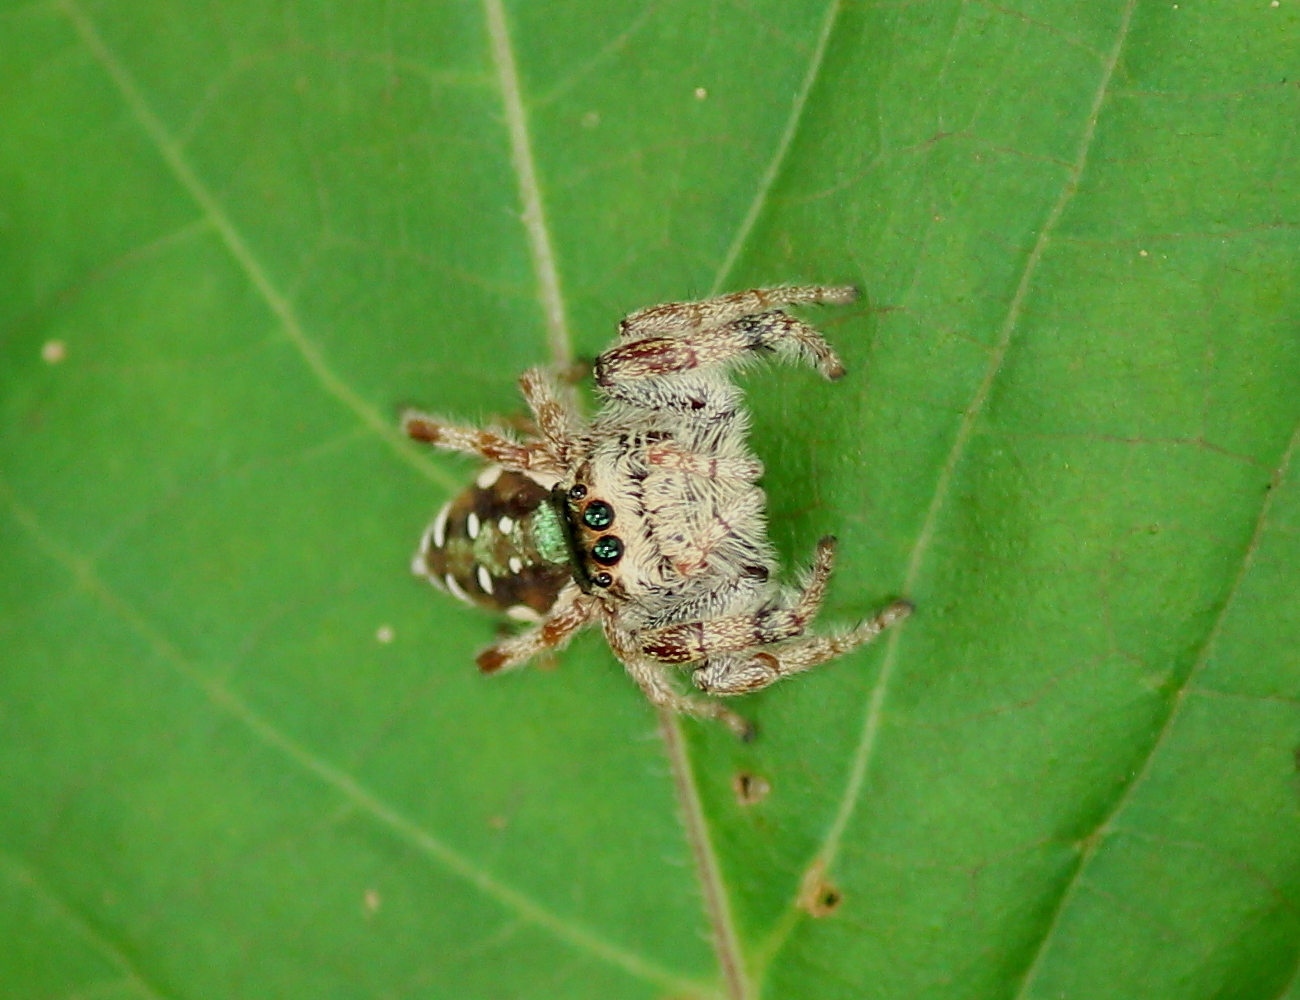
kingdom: Animalia
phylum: Arthropoda
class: Arachnida
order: Araneae
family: Salticidae
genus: Paraphidippus
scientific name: Paraphidippus aurantius
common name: Jumping spiders
